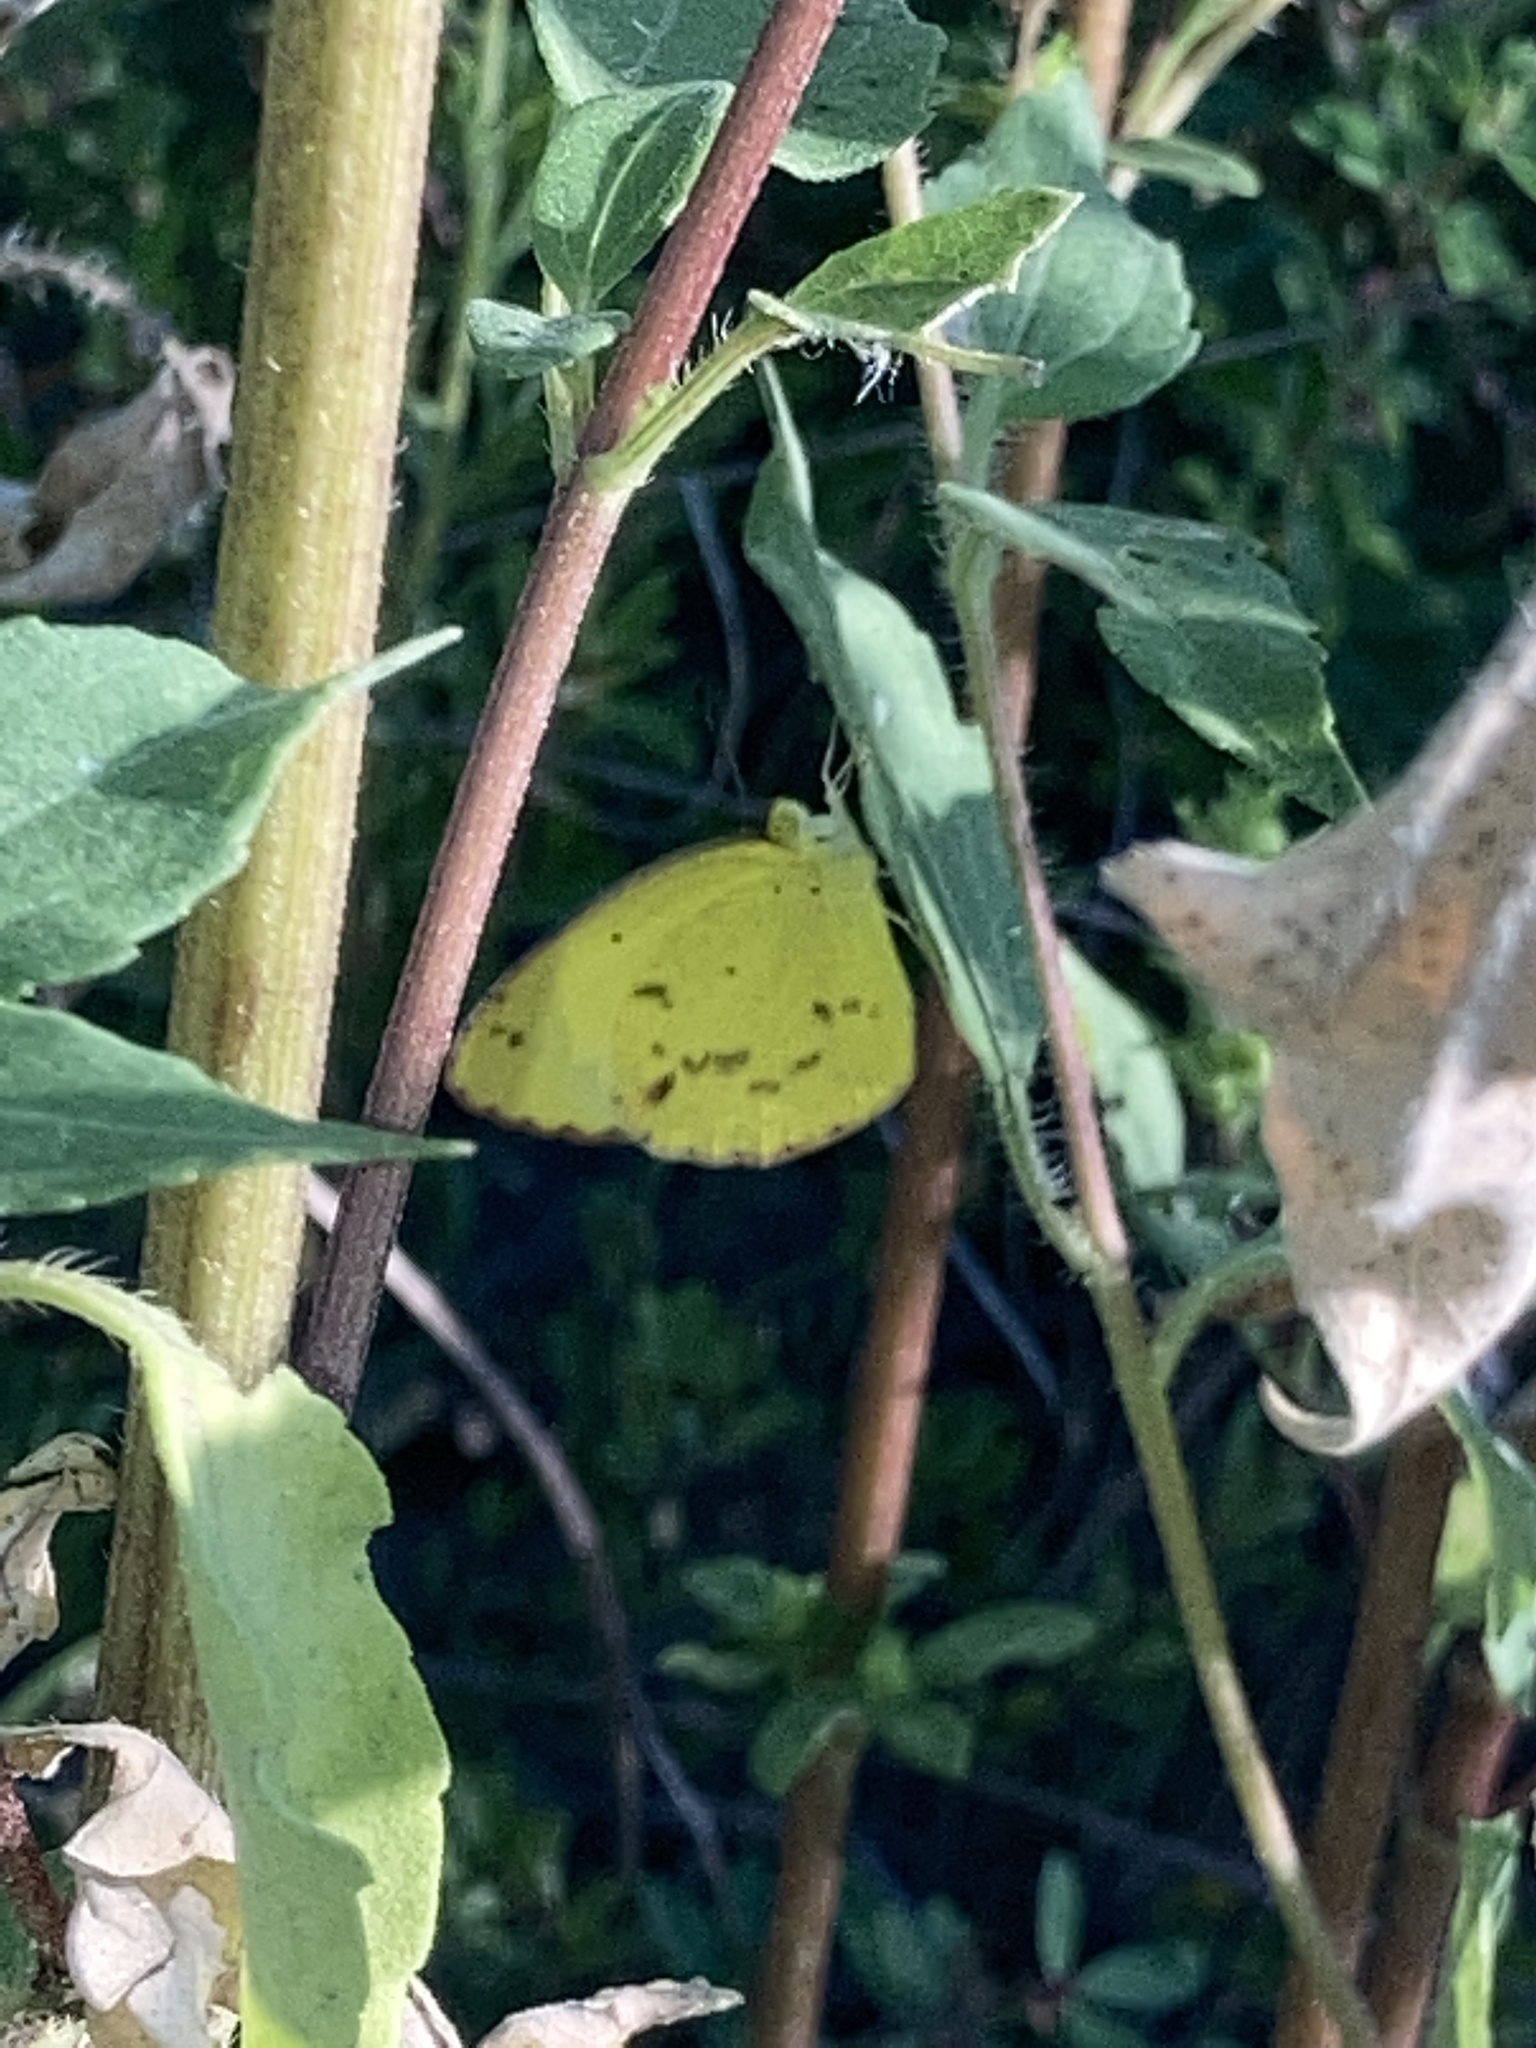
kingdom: Animalia
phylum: Arthropoda
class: Insecta
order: Lepidoptera
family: Pieridae
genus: Pyrisitia
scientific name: Pyrisitia lisa
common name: Little yellow
